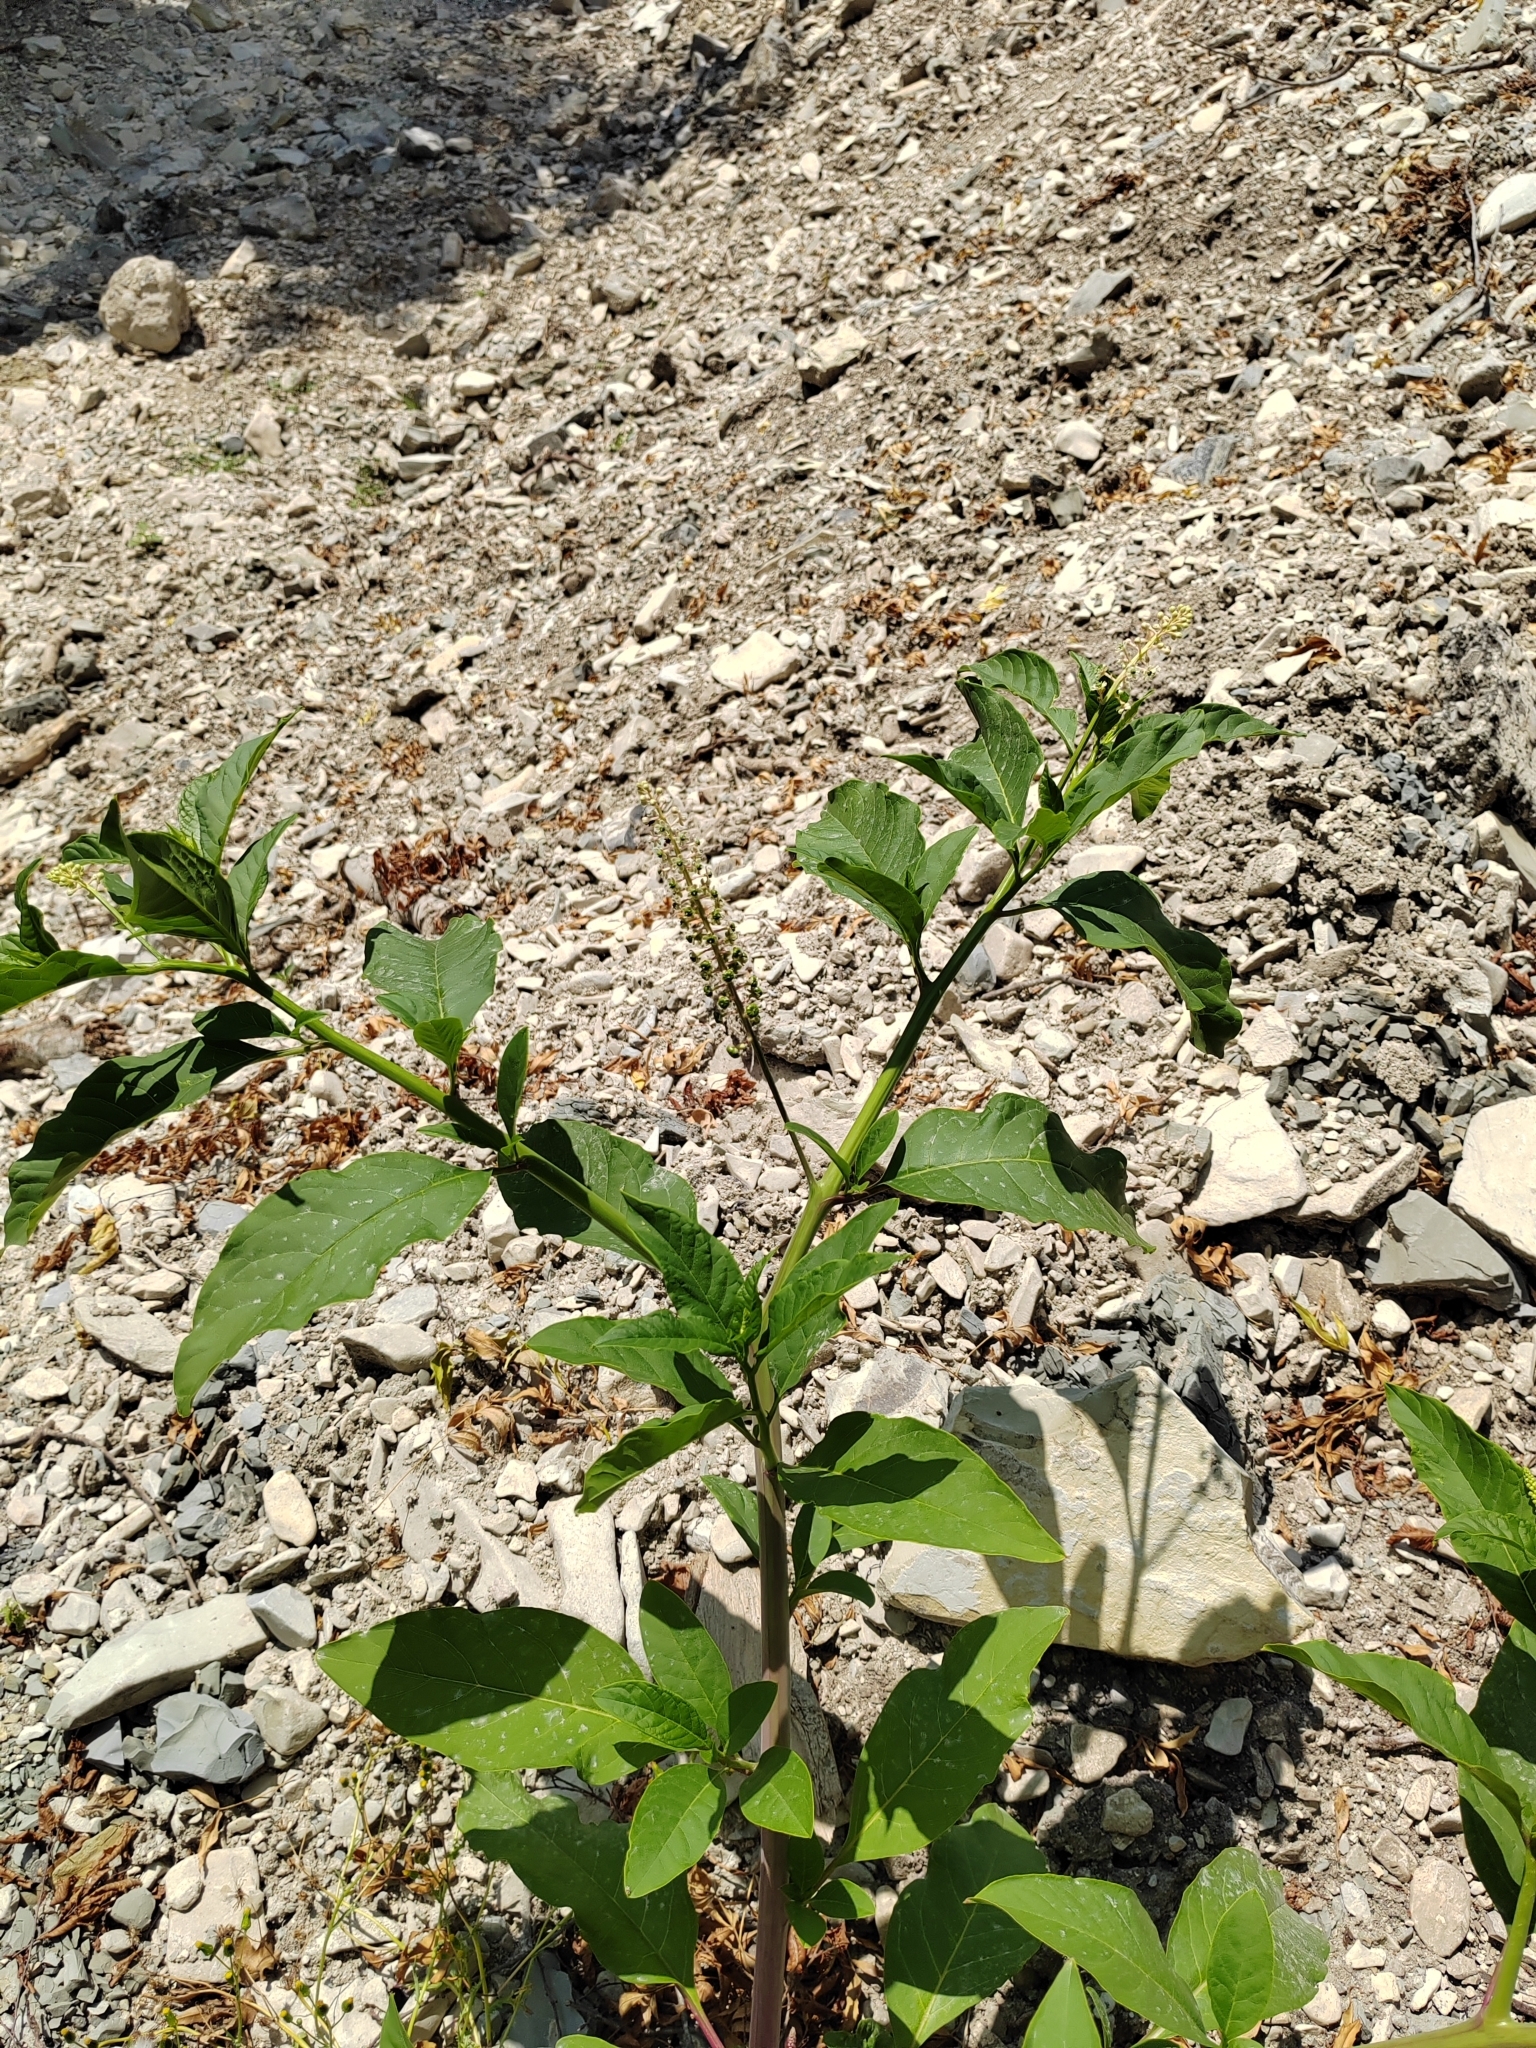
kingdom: Plantae
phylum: Tracheophyta
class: Magnoliopsida
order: Caryophyllales
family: Phytolaccaceae
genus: Phytolacca
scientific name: Phytolacca americana
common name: American pokeweed
